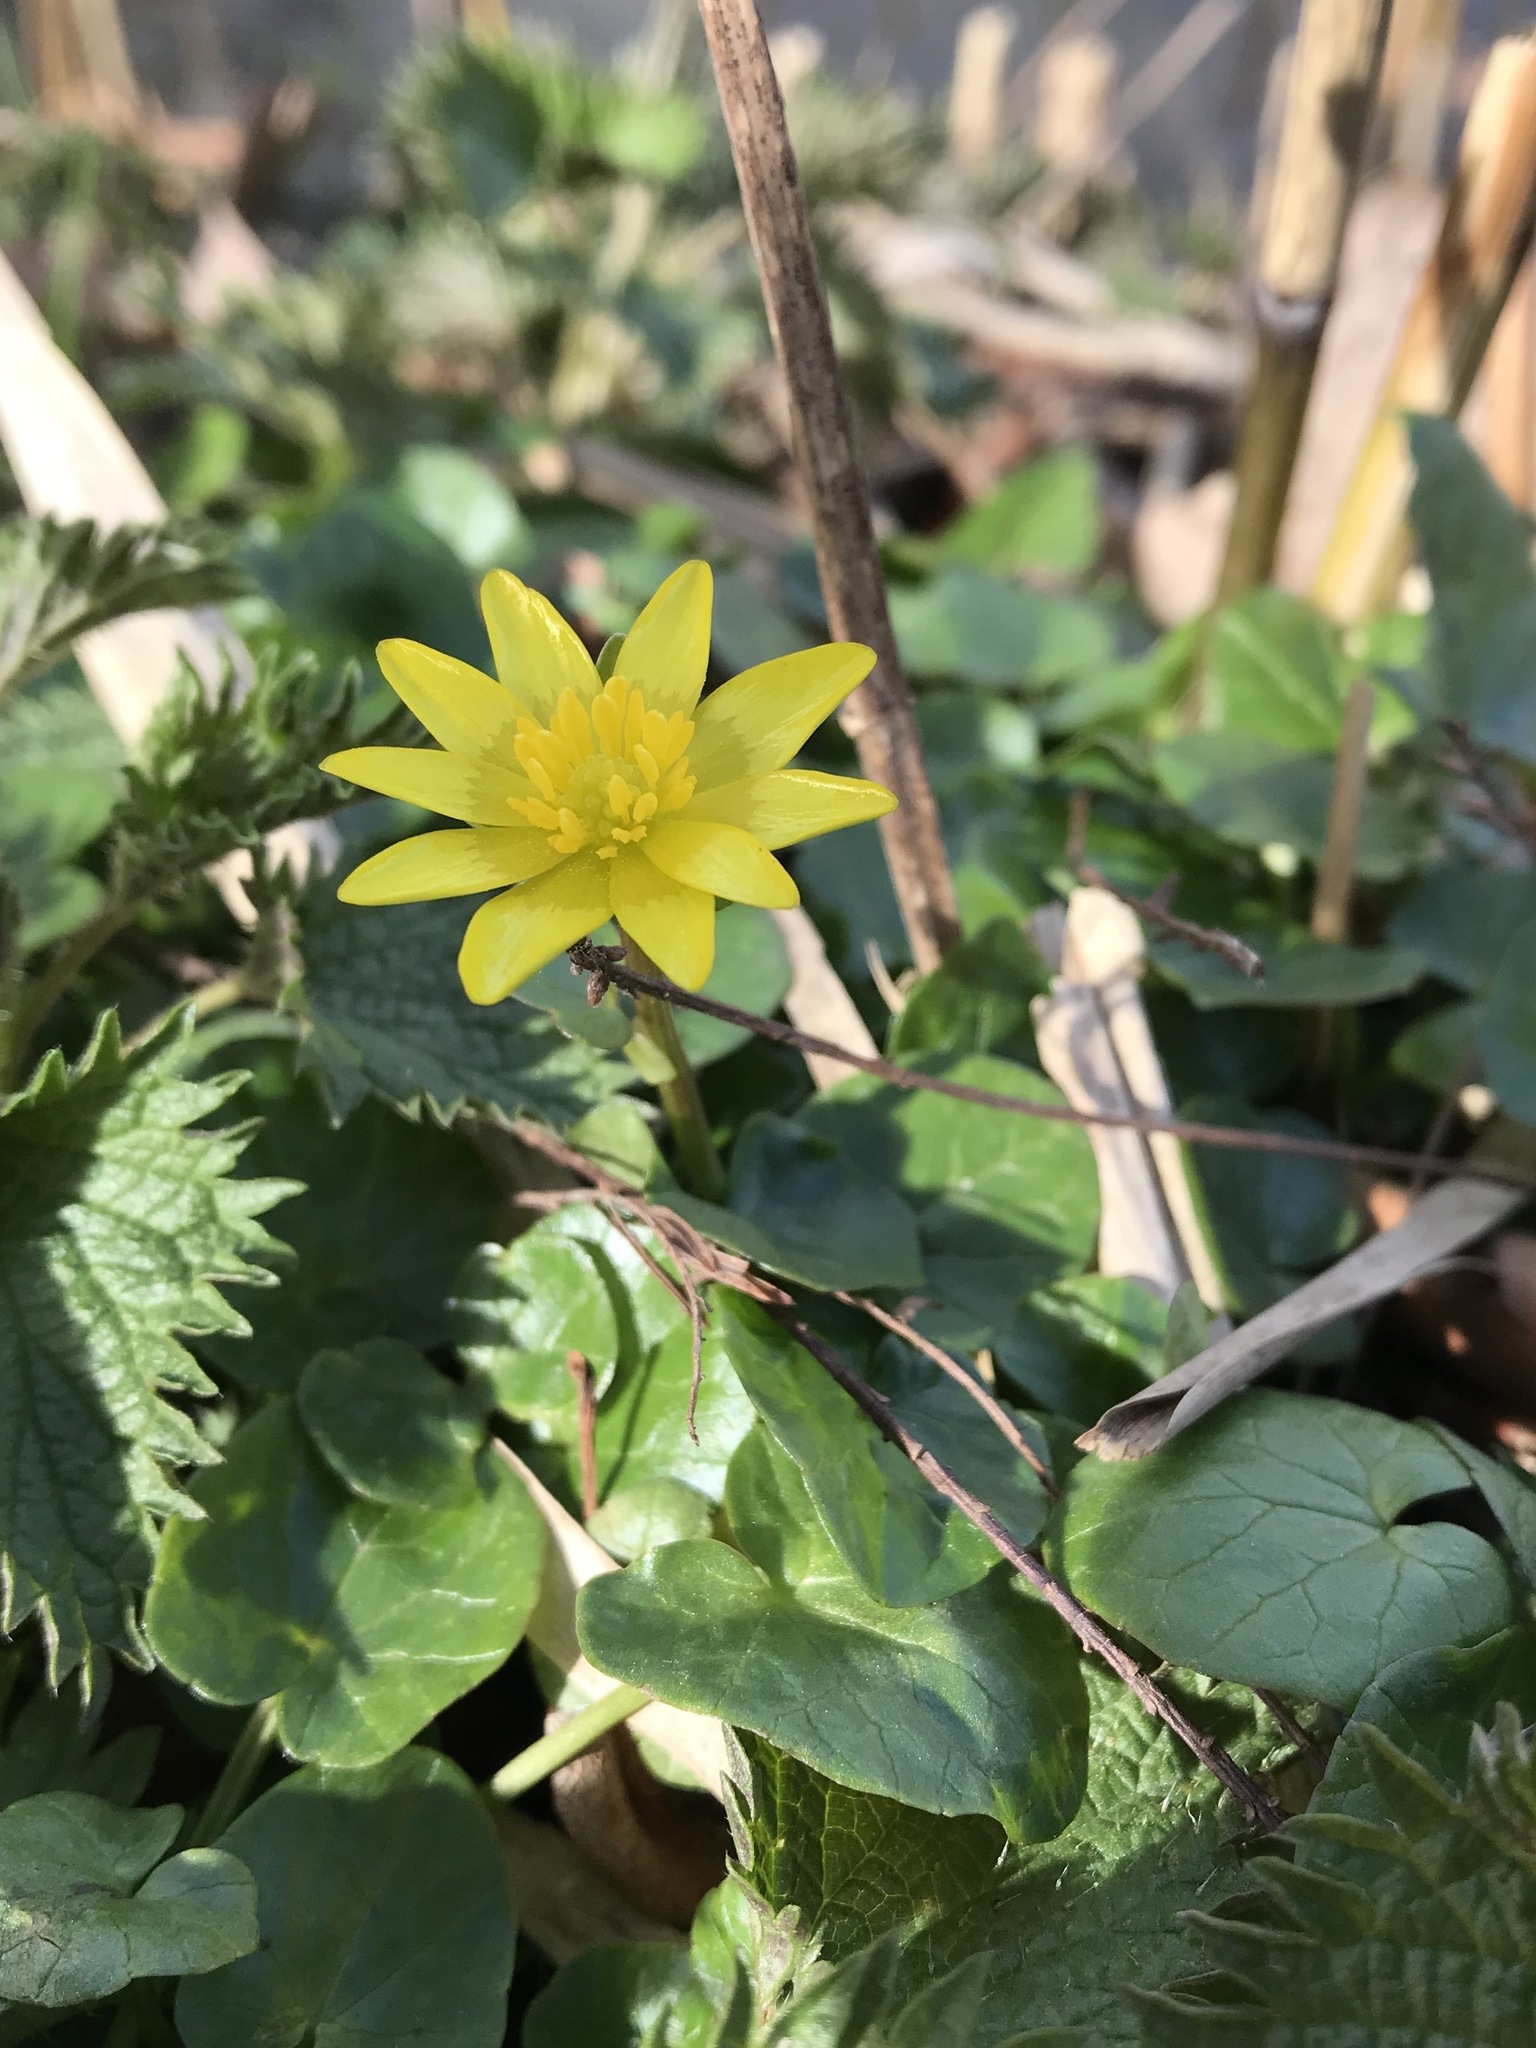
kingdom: Plantae
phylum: Tracheophyta
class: Magnoliopsida
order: Ranunculales
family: Ranunculaceae
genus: Ficaria
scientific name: Ficaria verna
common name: Lesser celandine
